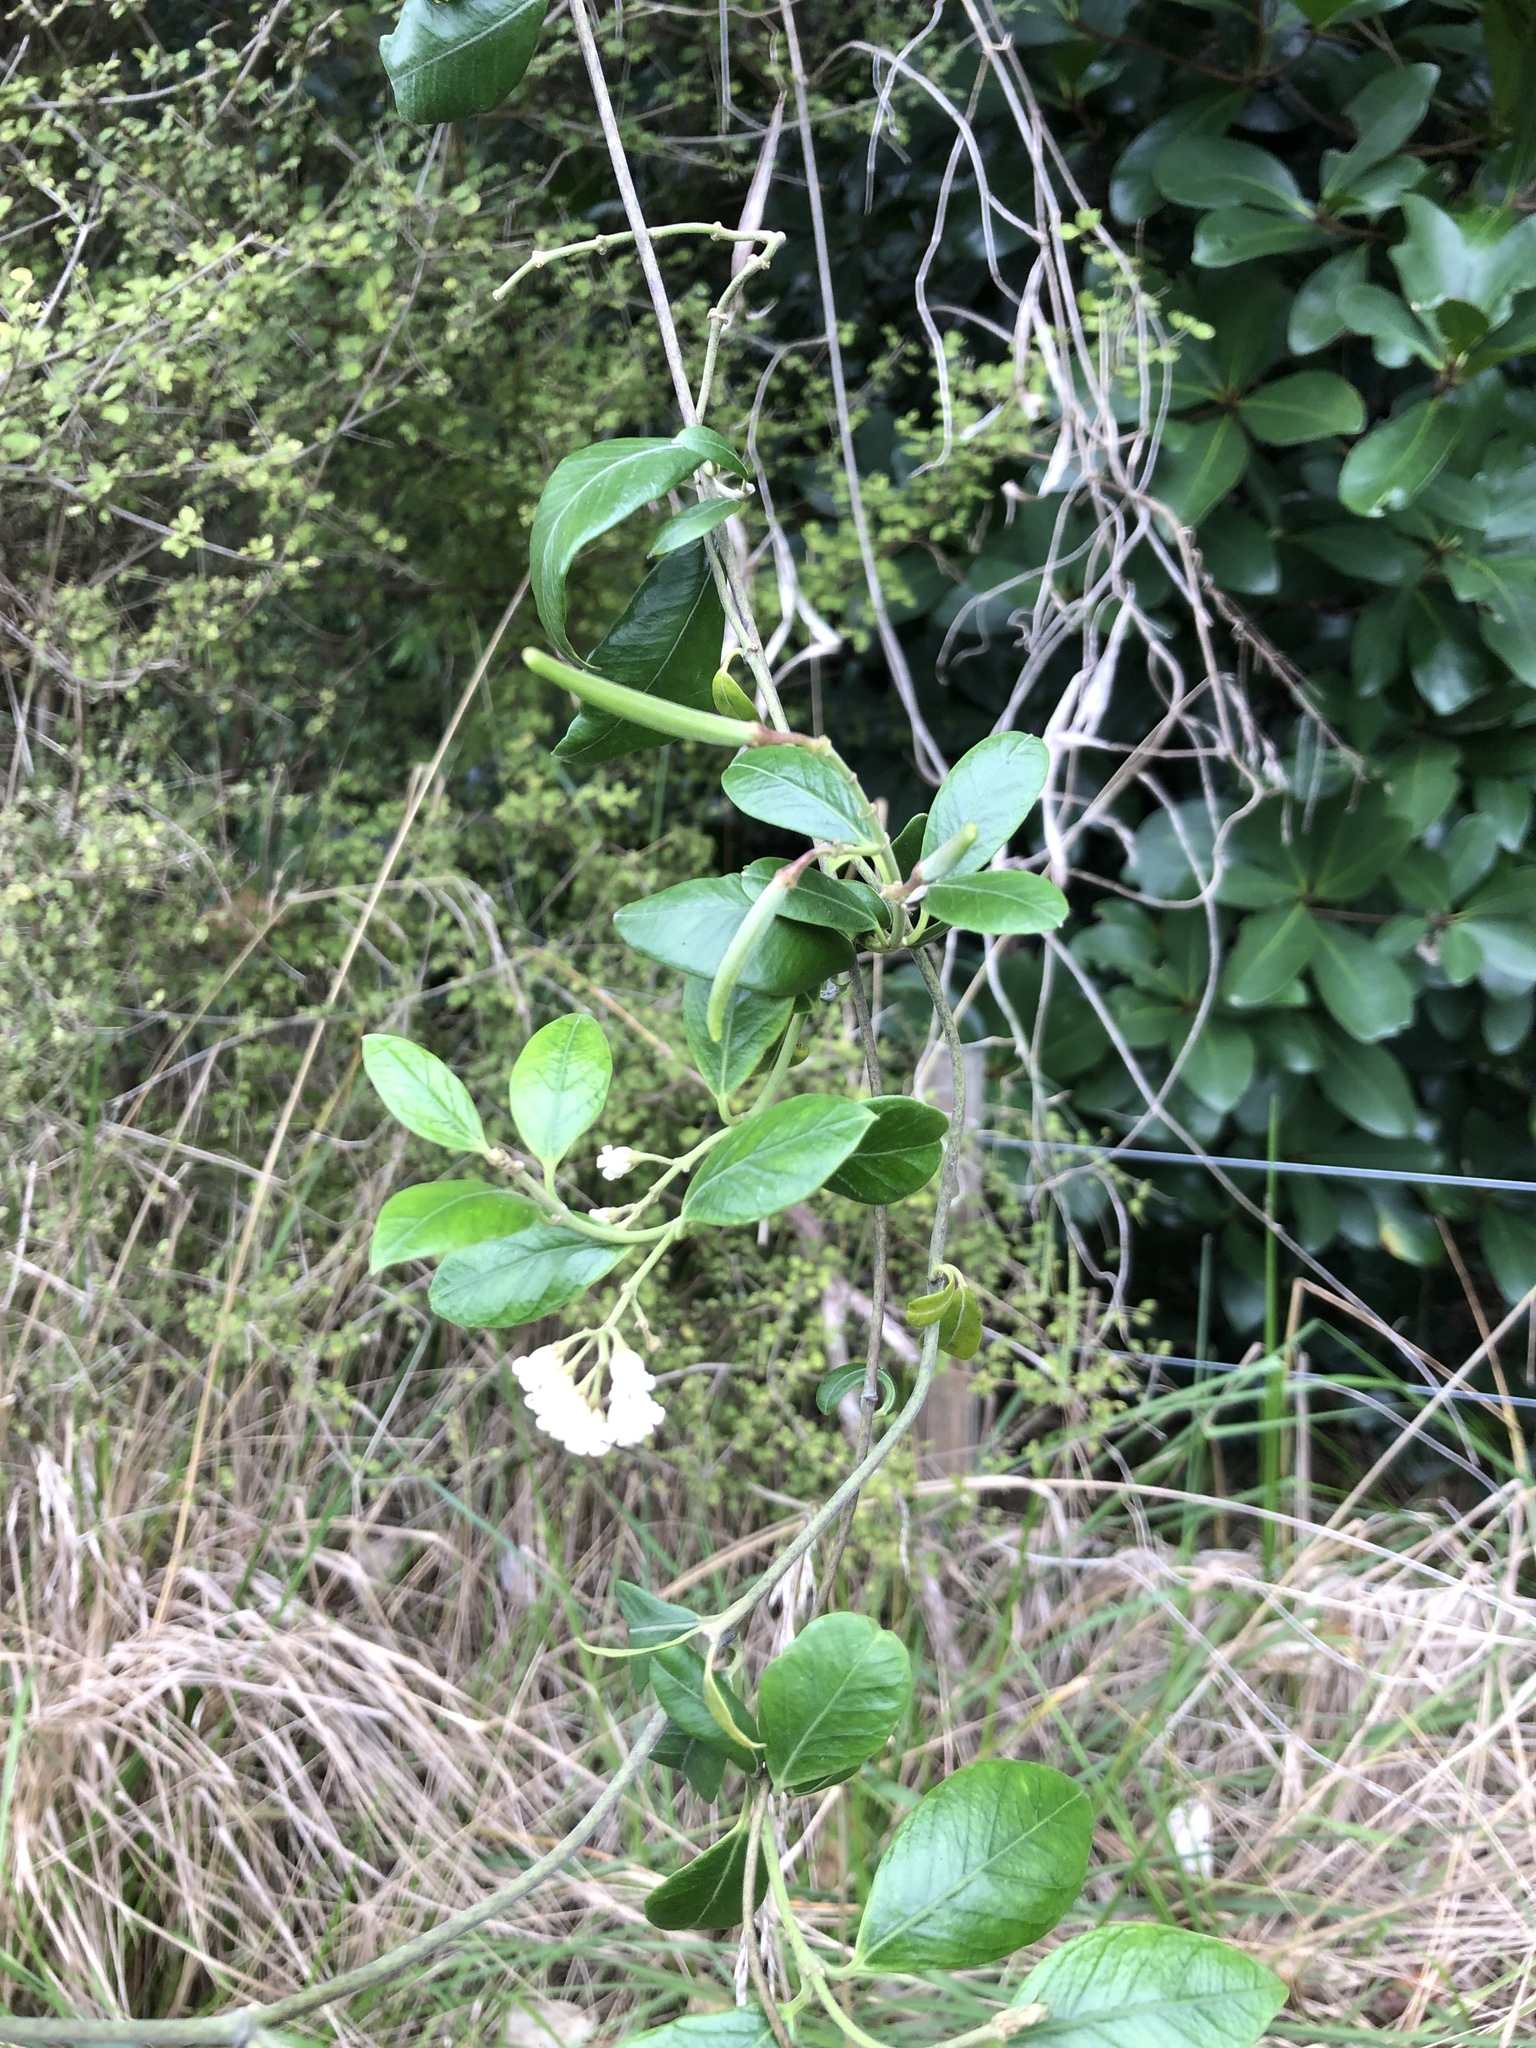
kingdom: Plantae
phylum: Tracheophyta
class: Magnoliopsida
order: Gentianales
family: Apocynaceae
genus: Parsonsia
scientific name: Parsonsia heterophylla
